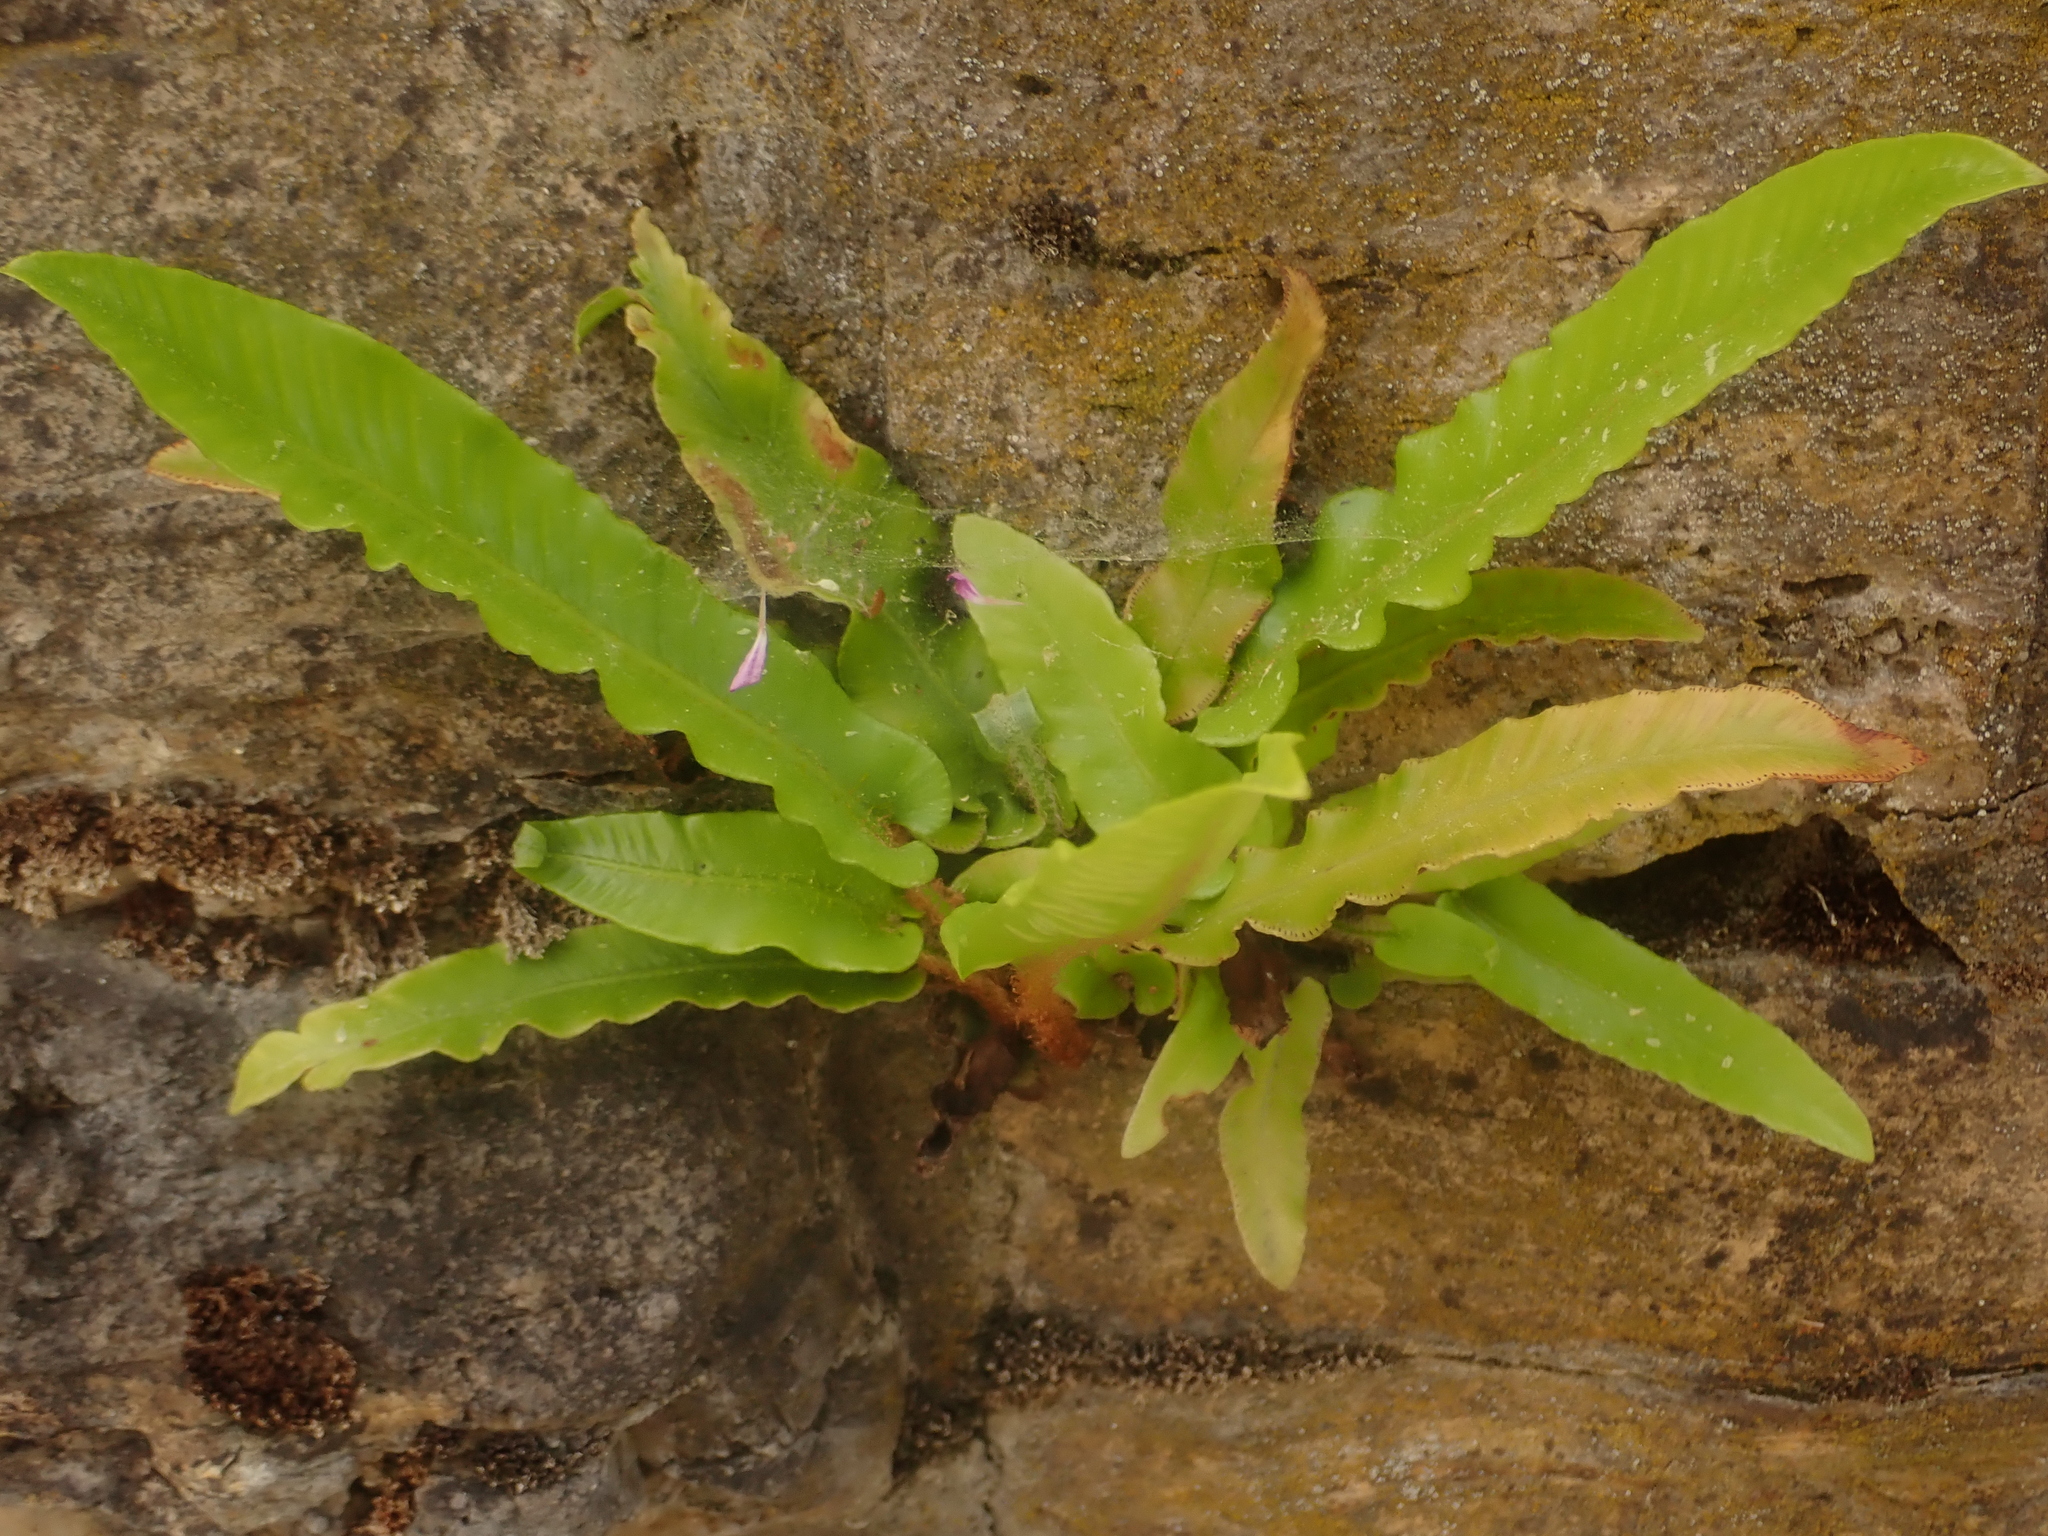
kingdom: Plantae
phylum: Tracheophyta
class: Polypodiopsida
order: Polypodiales
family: Aspleniaceae
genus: Asplenium
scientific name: Asplenium scolopendrium
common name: Hart's-tongue fern
